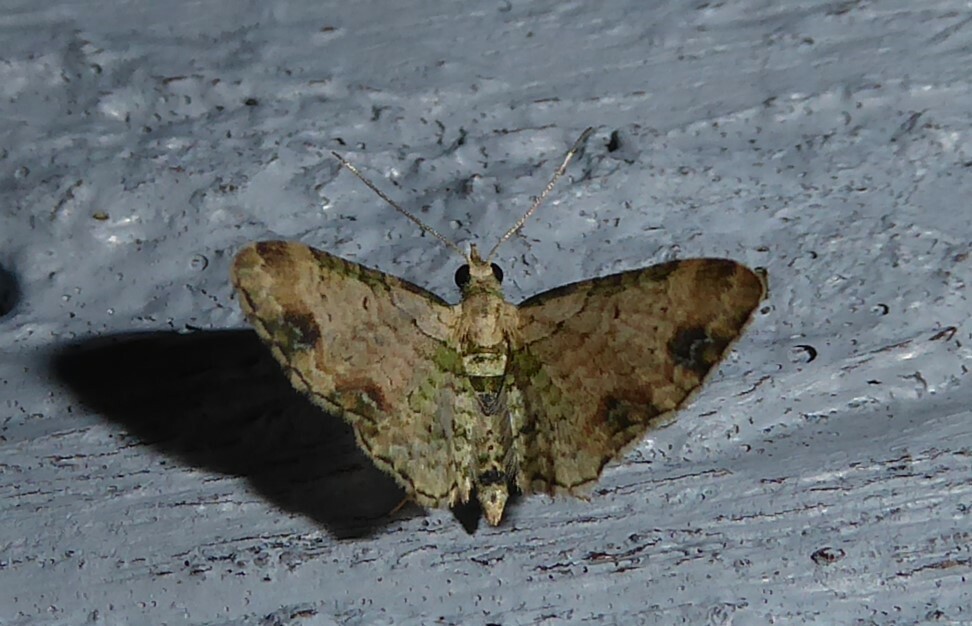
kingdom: Animalia
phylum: Arthropoda
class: Insecta
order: Lepidoptera
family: Geometridae
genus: Chloroclystis
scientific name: Chloroclystis
